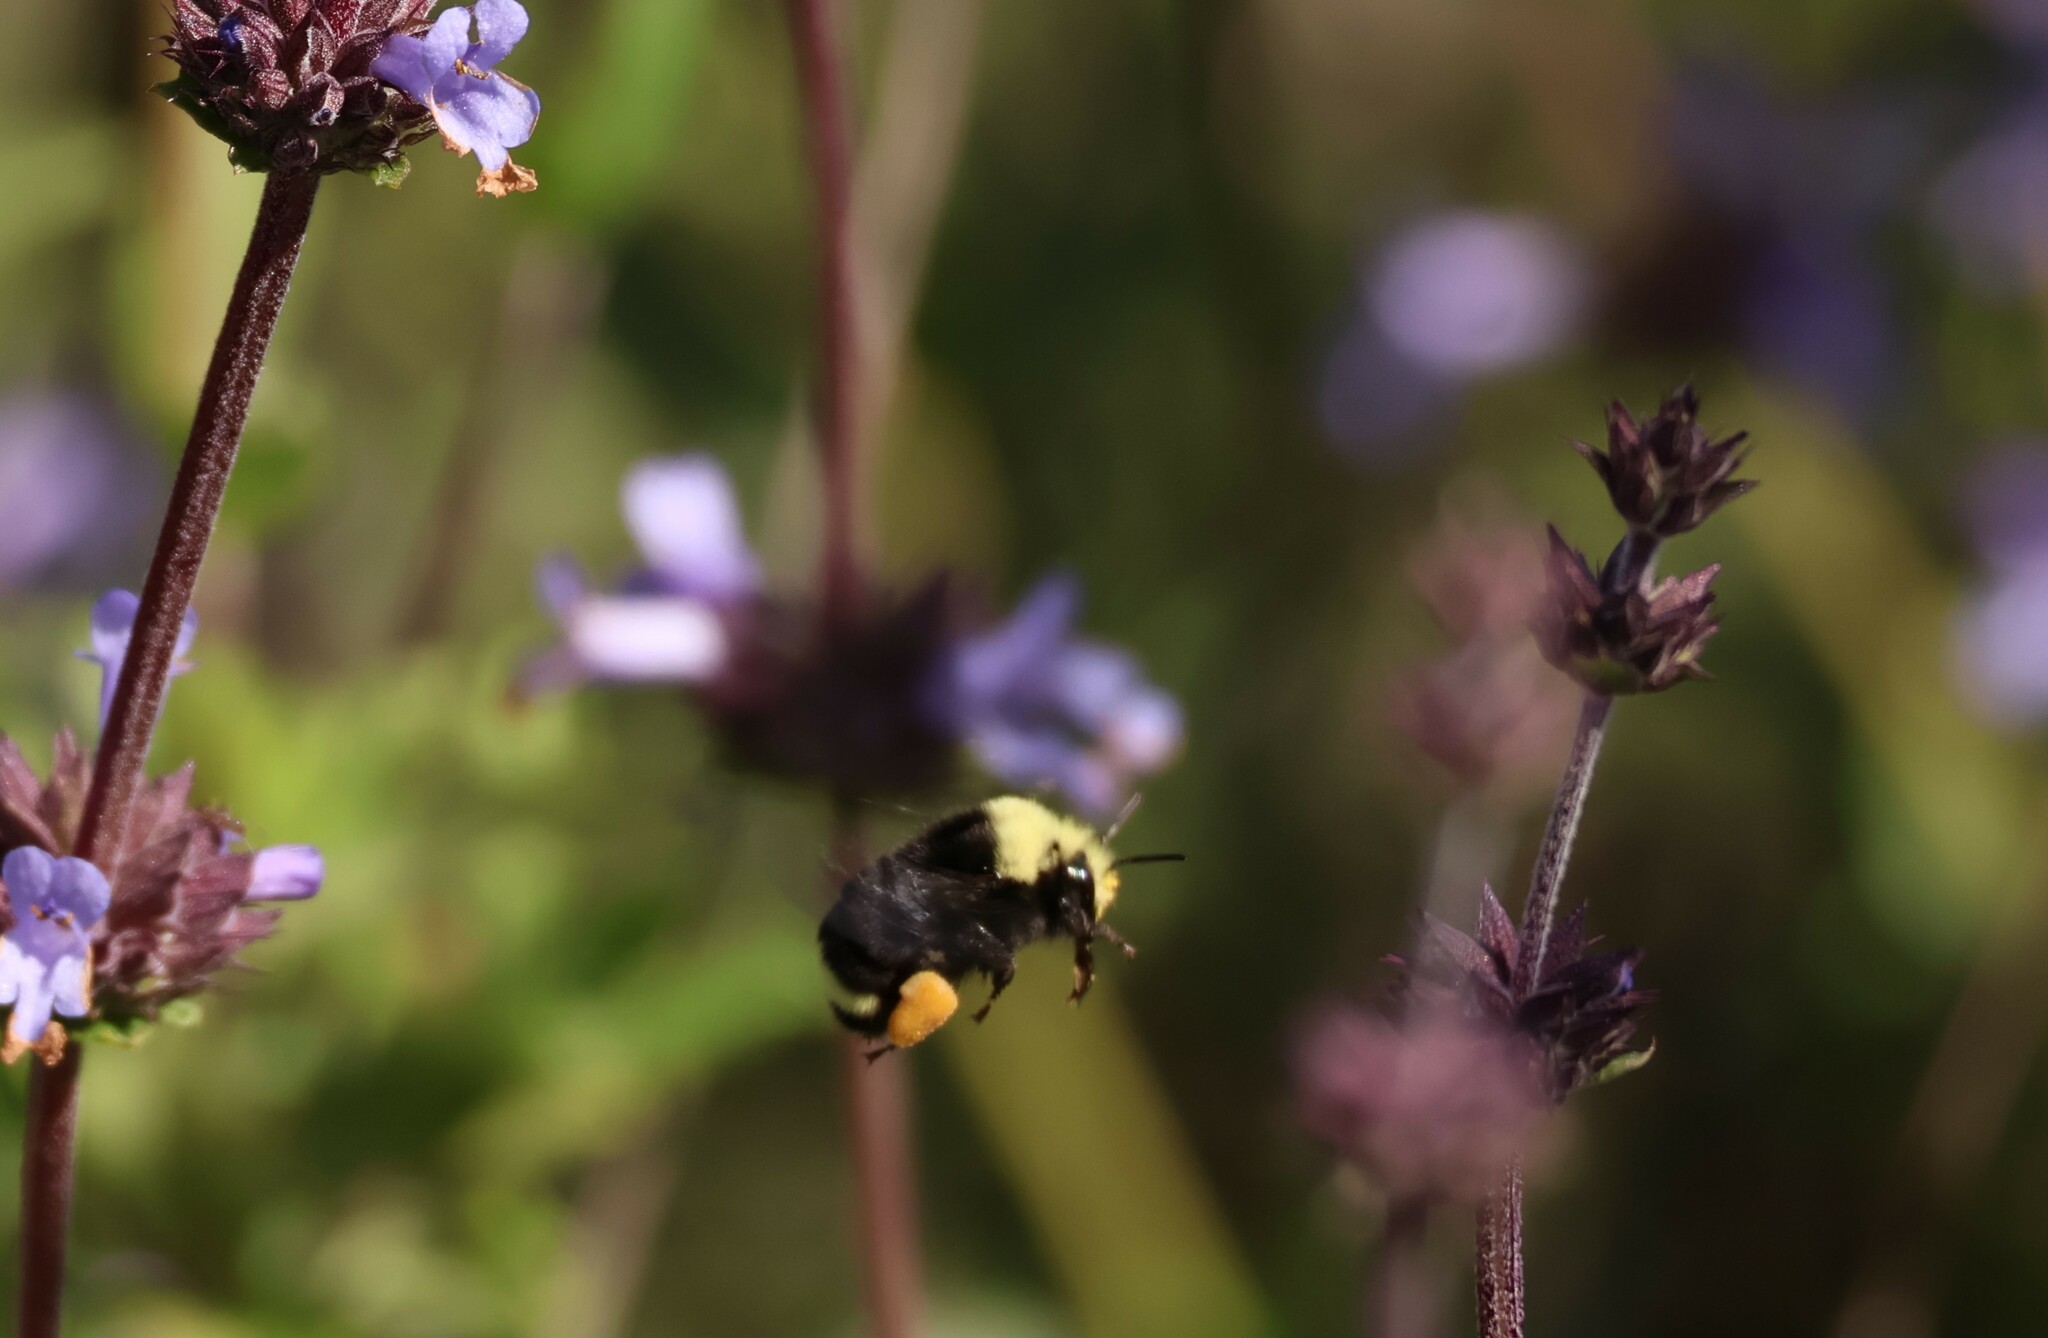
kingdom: Animalia
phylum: Arthropoda
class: Insecta
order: Hymenoptera
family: Apidae
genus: Bombus
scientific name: Bombus vosnesenskii
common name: Vosnesensky bumble bee
